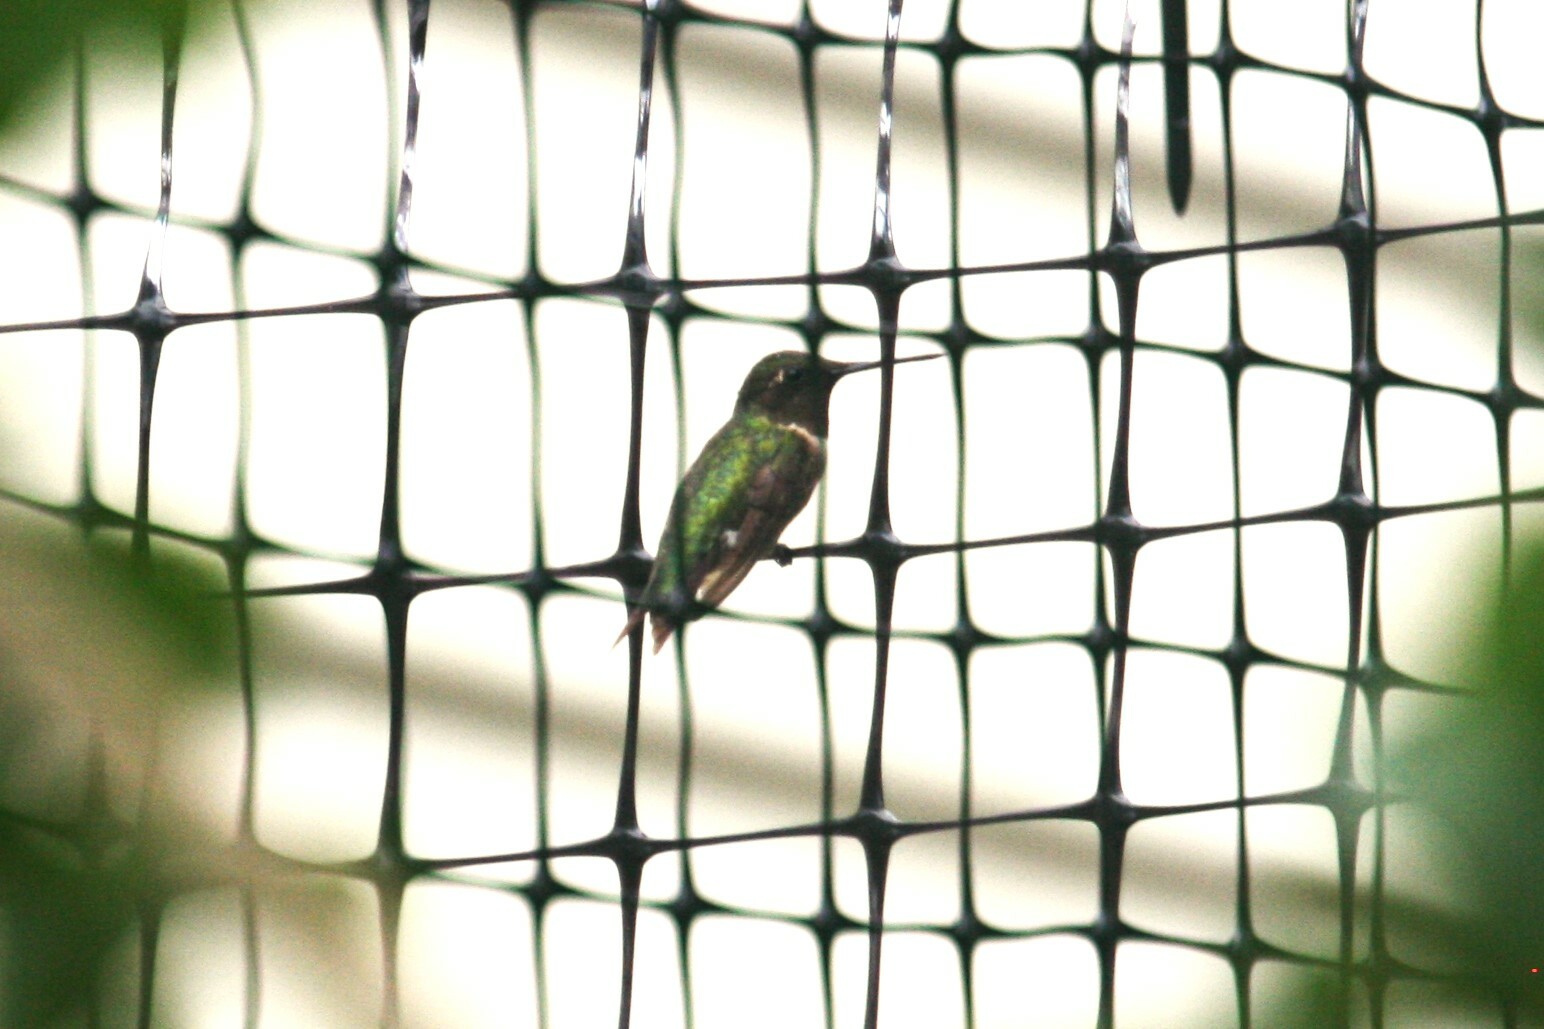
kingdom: Animalia
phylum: Chordata
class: Aves
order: Apodiformes
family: Trochilidae
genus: Archilochus
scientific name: Archilochus colubris
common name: Ruby-throated hummingbird
